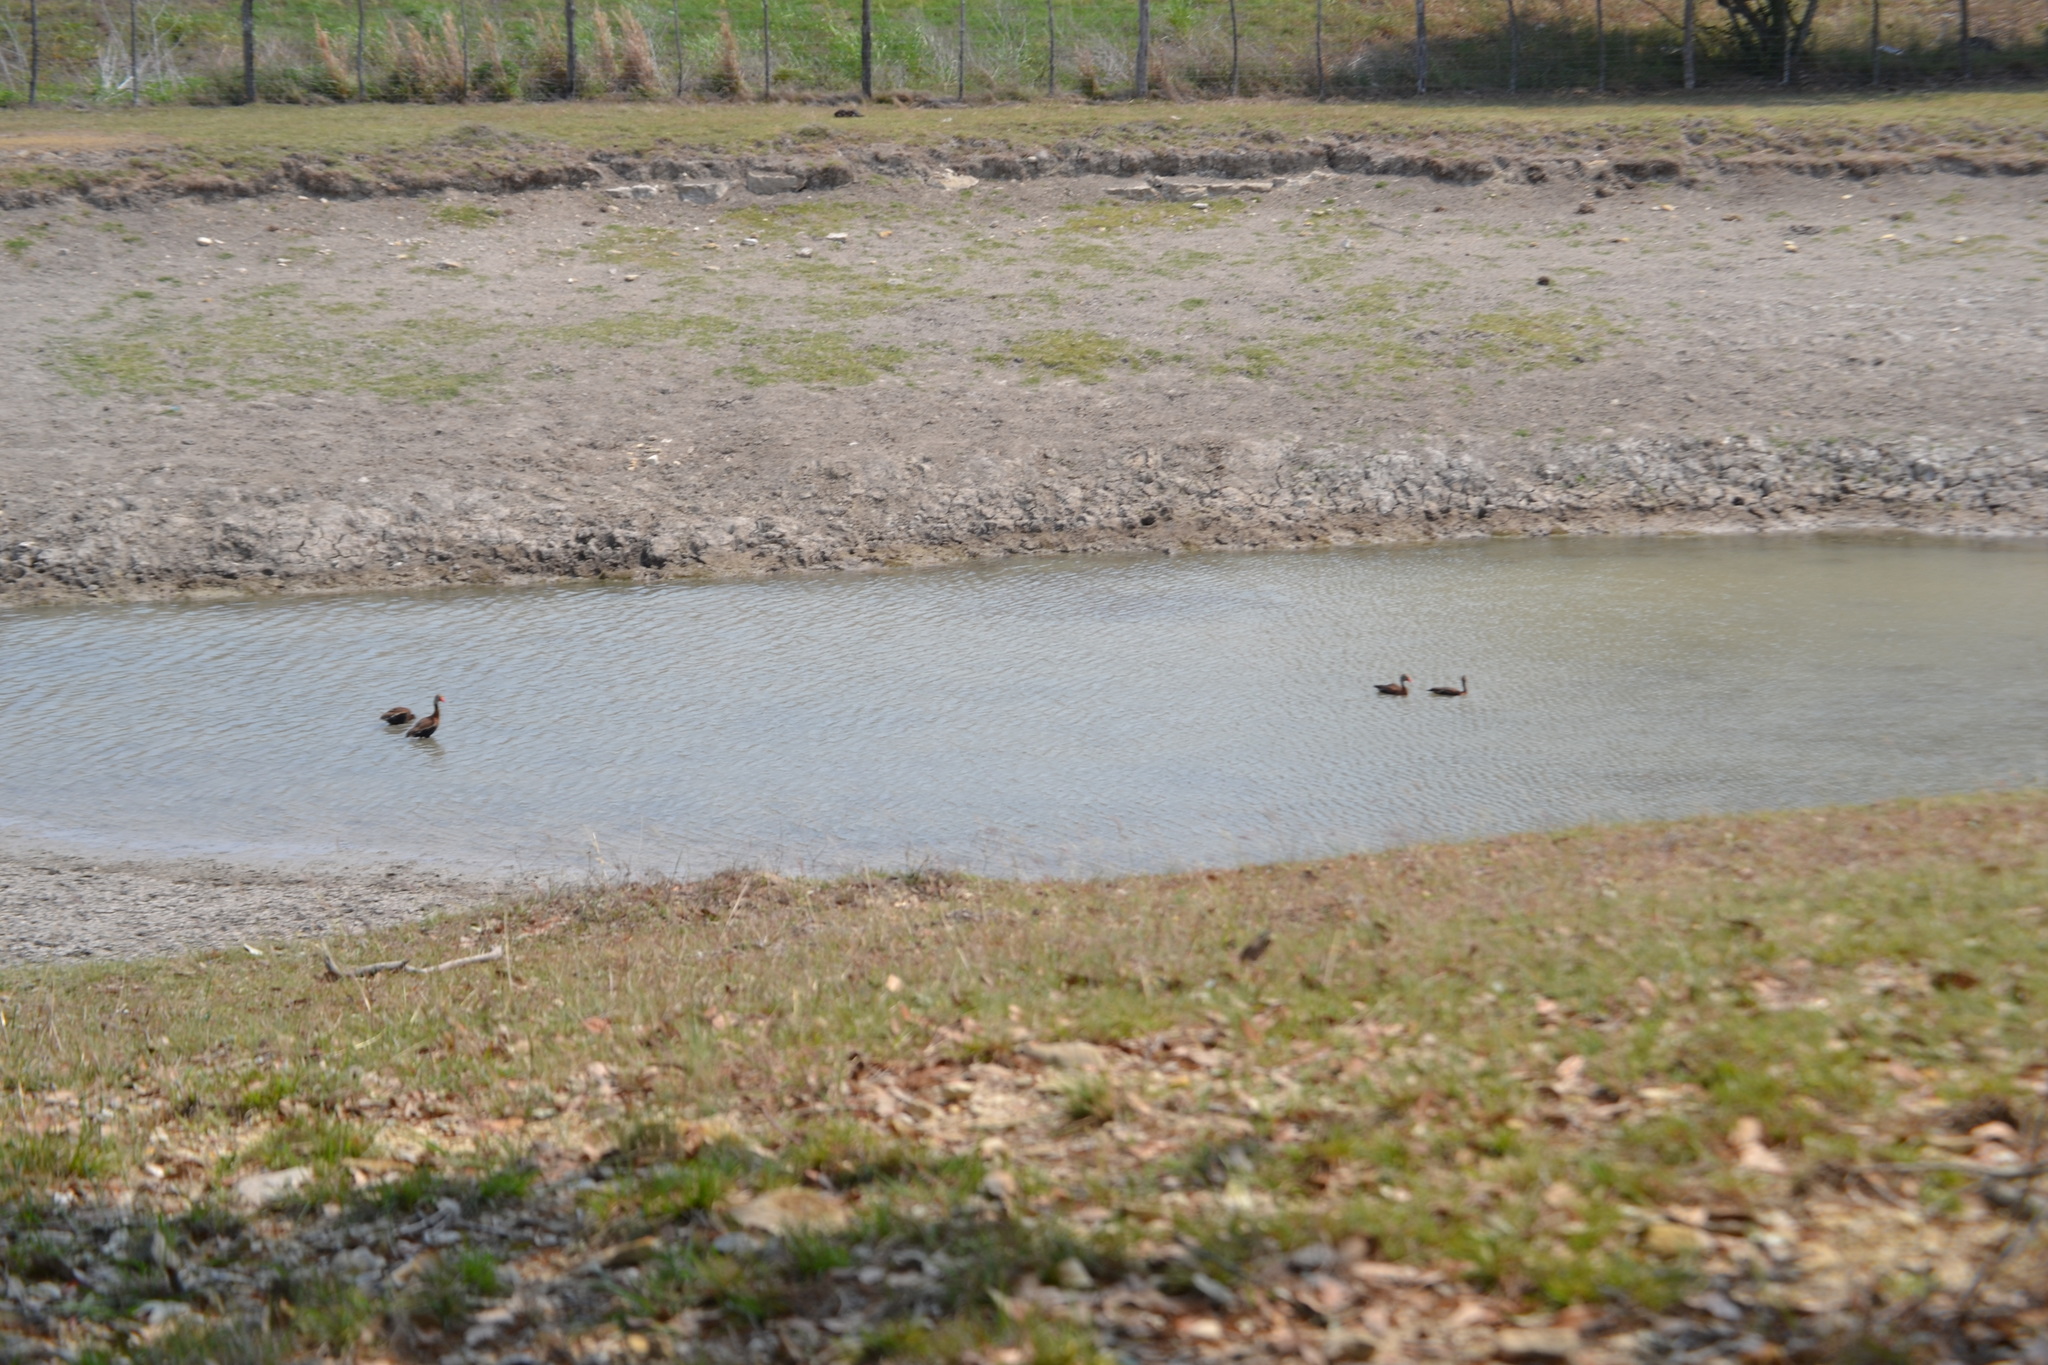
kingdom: Animalia
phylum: Chordata
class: Aves
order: Anseriformes
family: Anatidae
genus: Dendrocygna
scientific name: Dendrocygna autumnalis
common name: Black-bellied whistling duck
